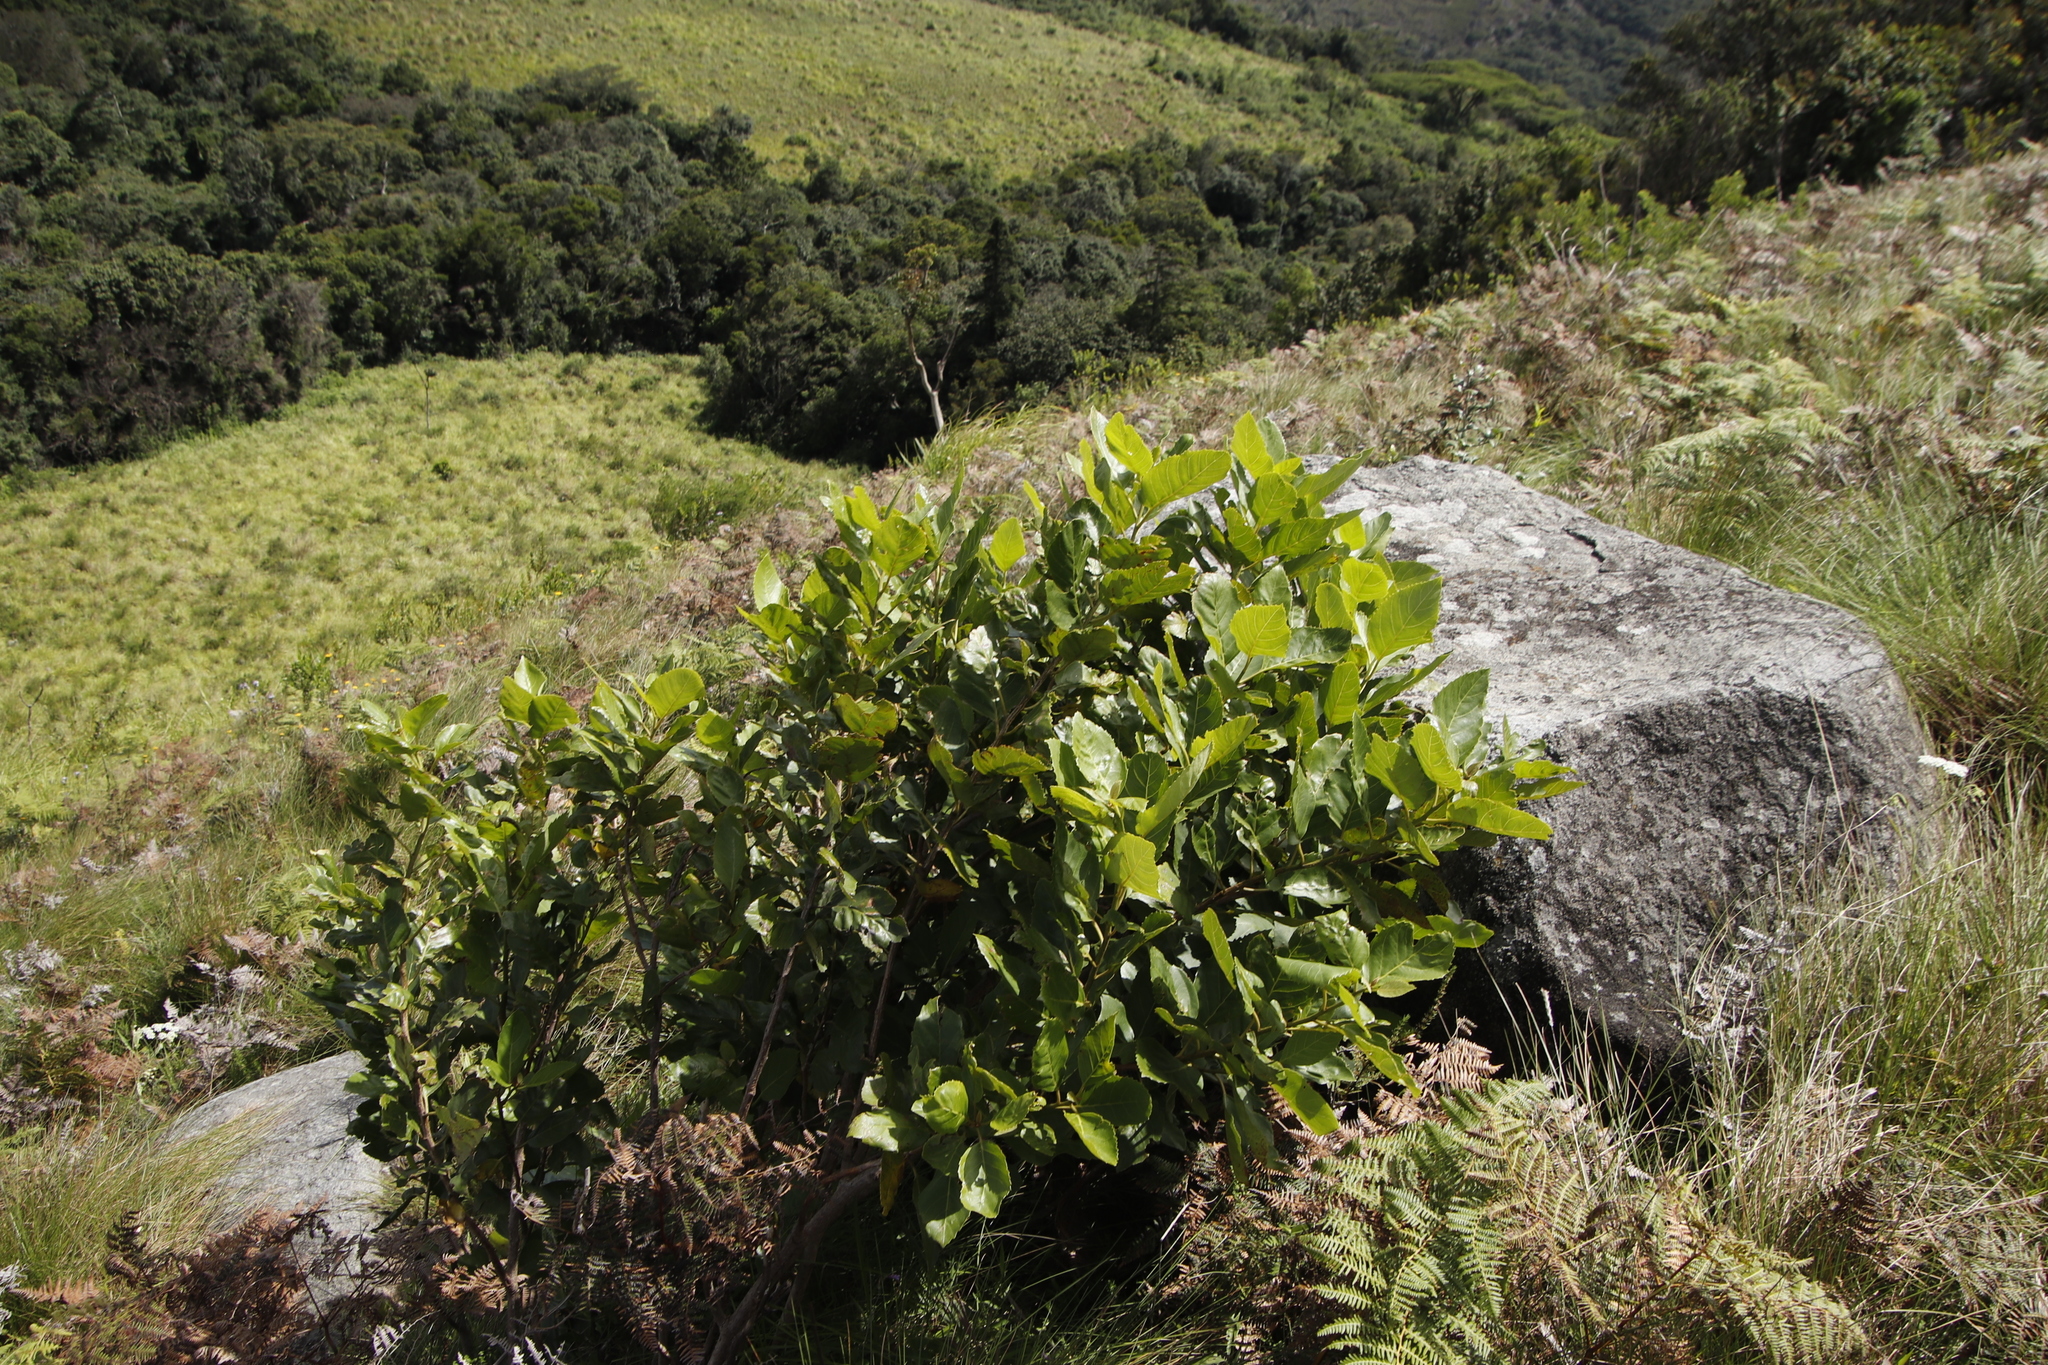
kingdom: Plantae
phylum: Tracheophyta
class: Magnoliopsida
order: Ericales
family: Primulaceae
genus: Maesa
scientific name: Maesa lanceolata
